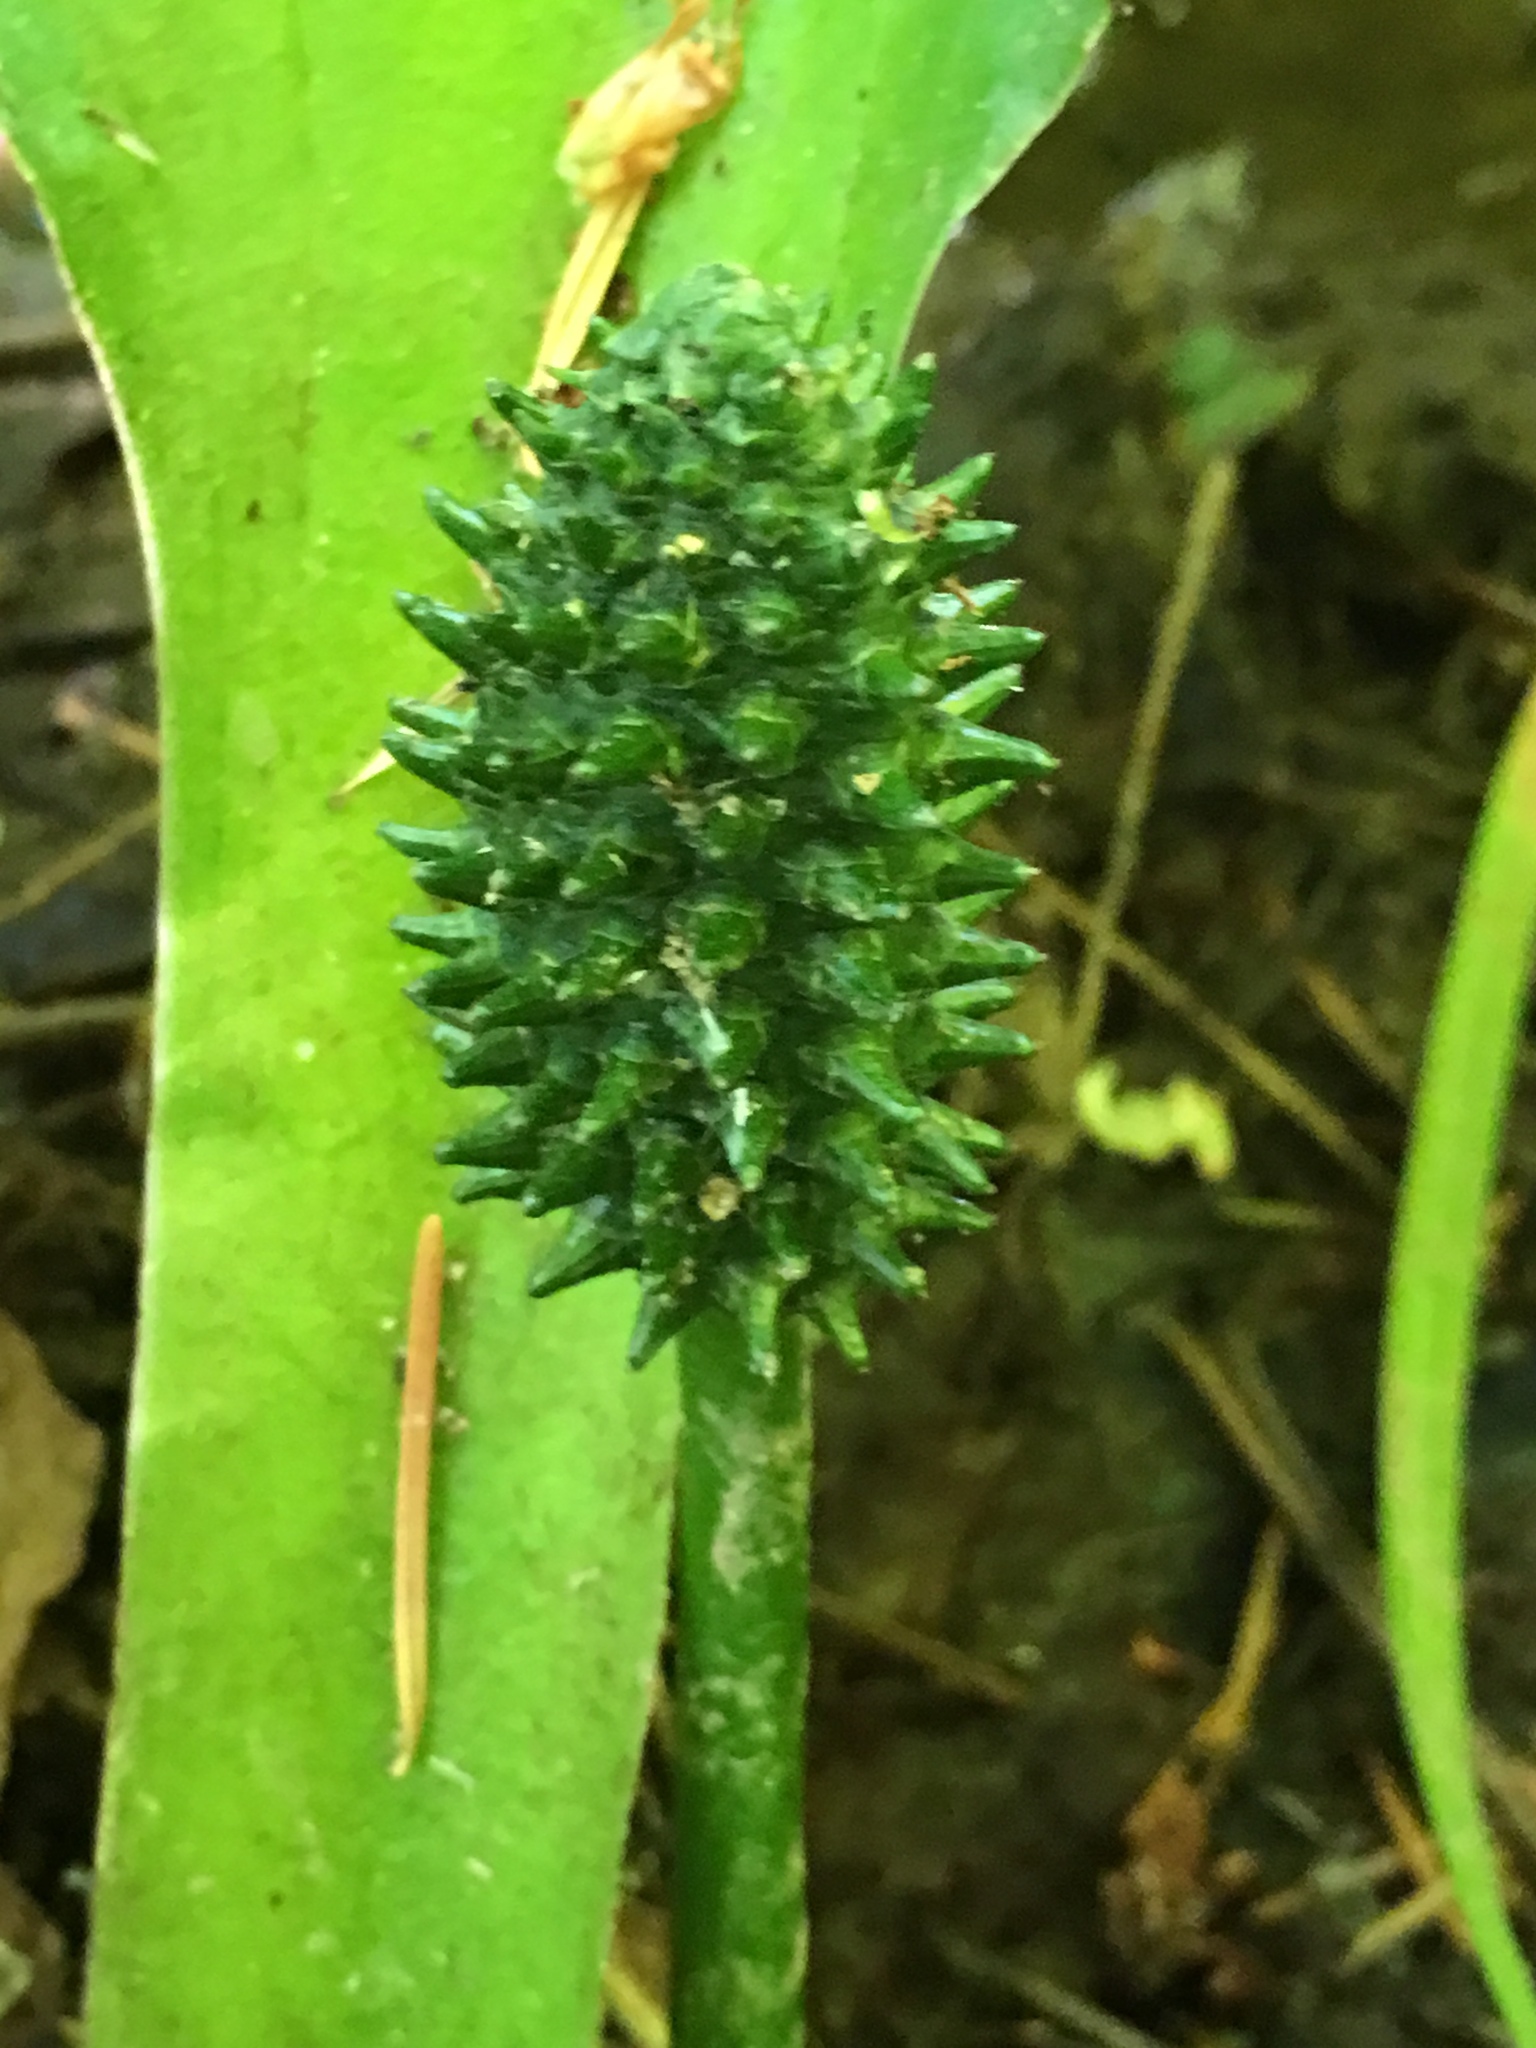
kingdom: Plantae
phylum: Tracheophyta
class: Liliopsida
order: Alismatales
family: Araceae
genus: Lysichiton
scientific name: Lysichiton americanus
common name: American skunk cabbage
